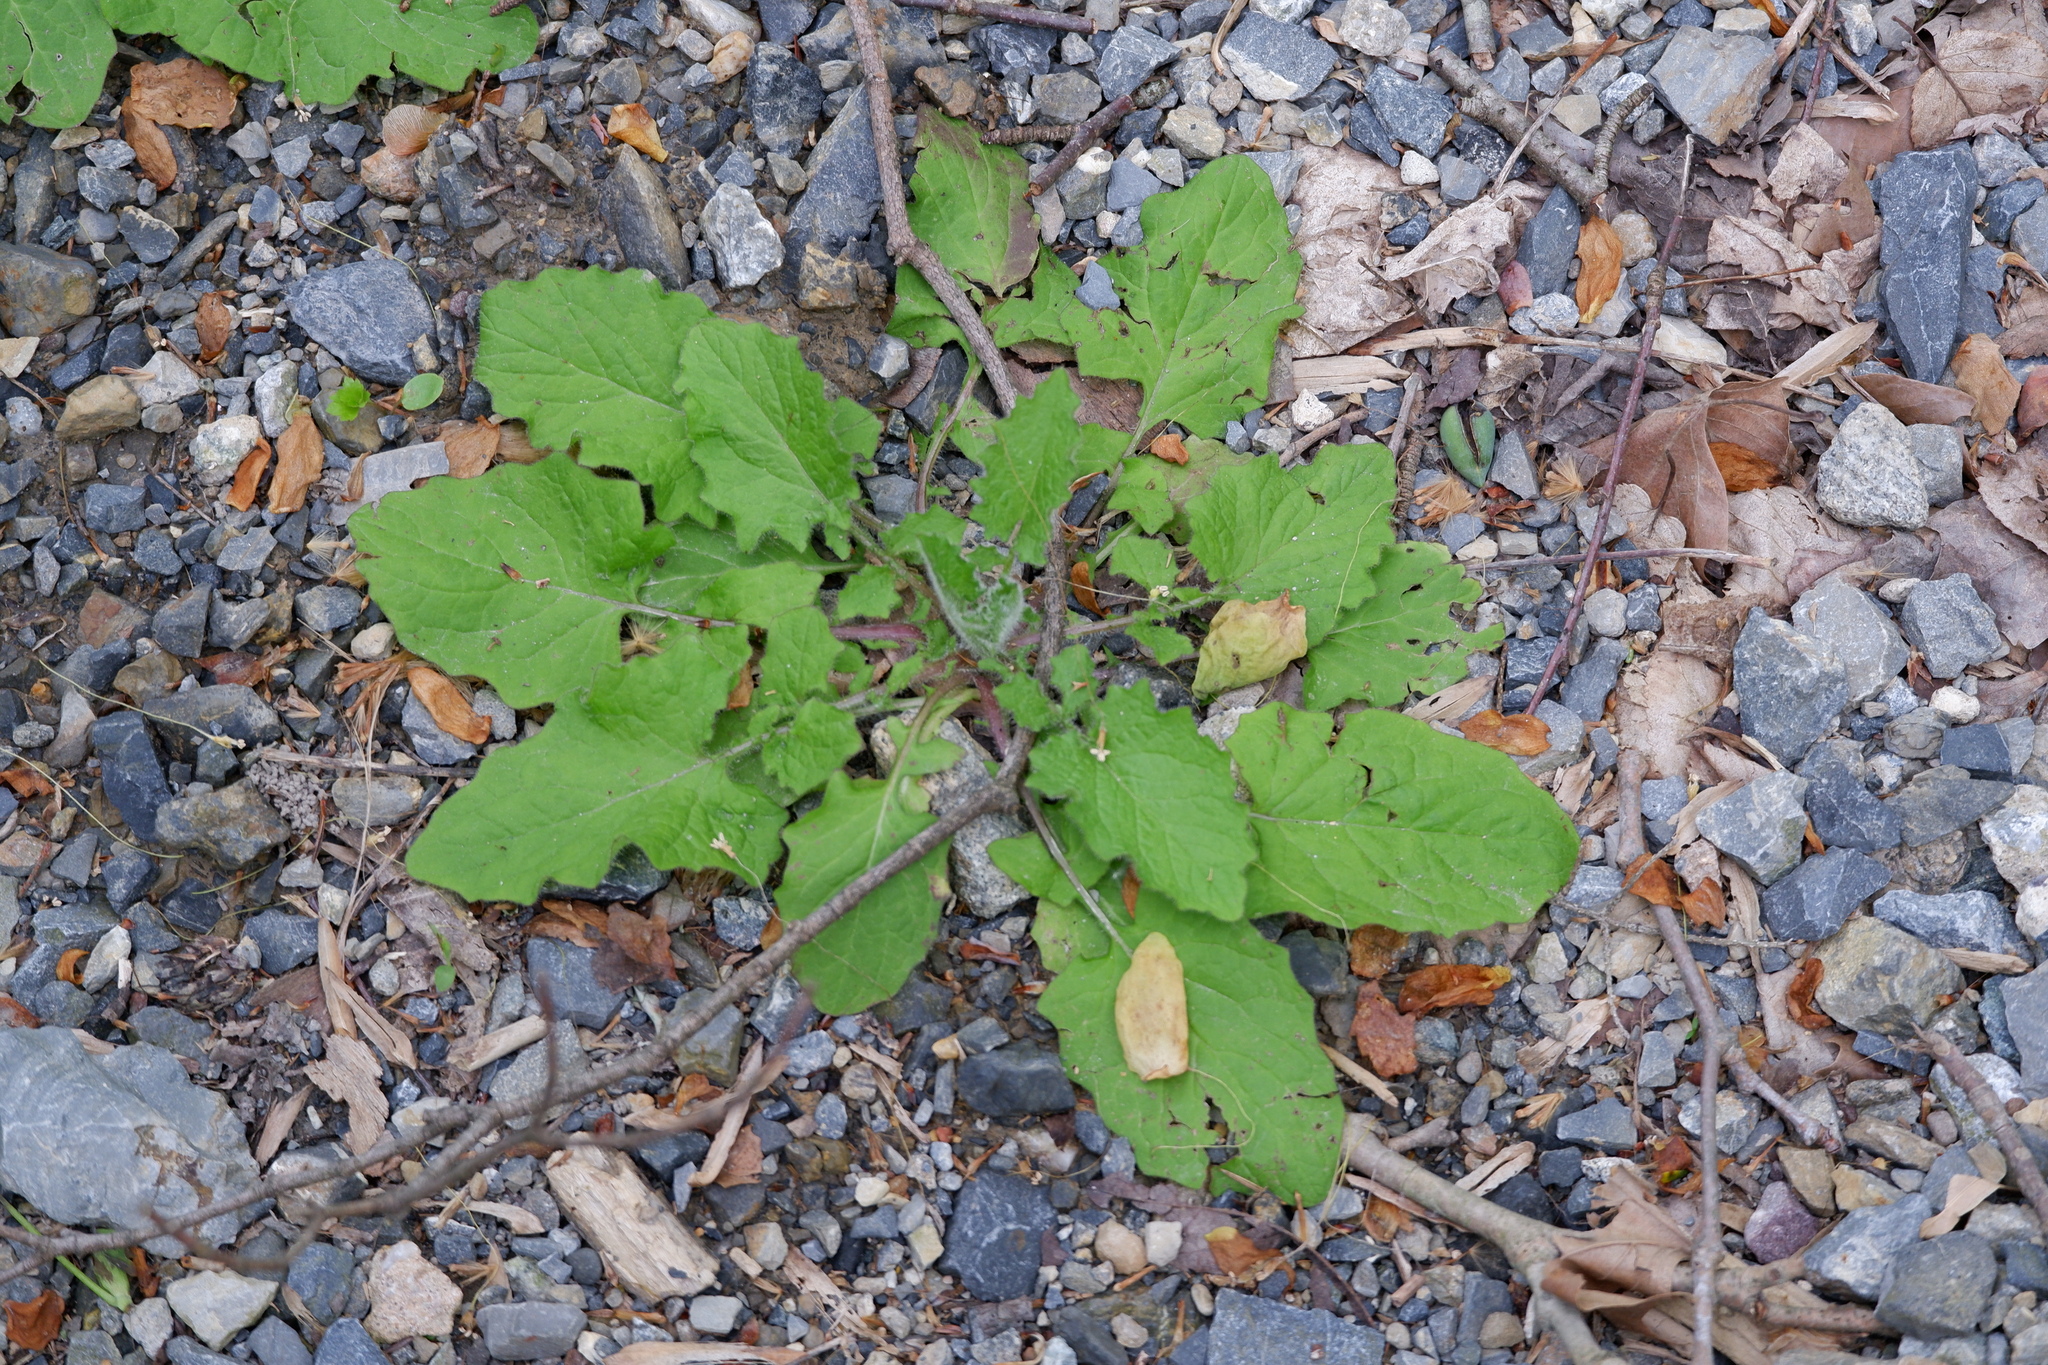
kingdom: Plantae
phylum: Tracheophyta
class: Magnoliopsida
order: Asterales
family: Asteraceae
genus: Lapsana
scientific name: Lapsana communis
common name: Nipplewort
